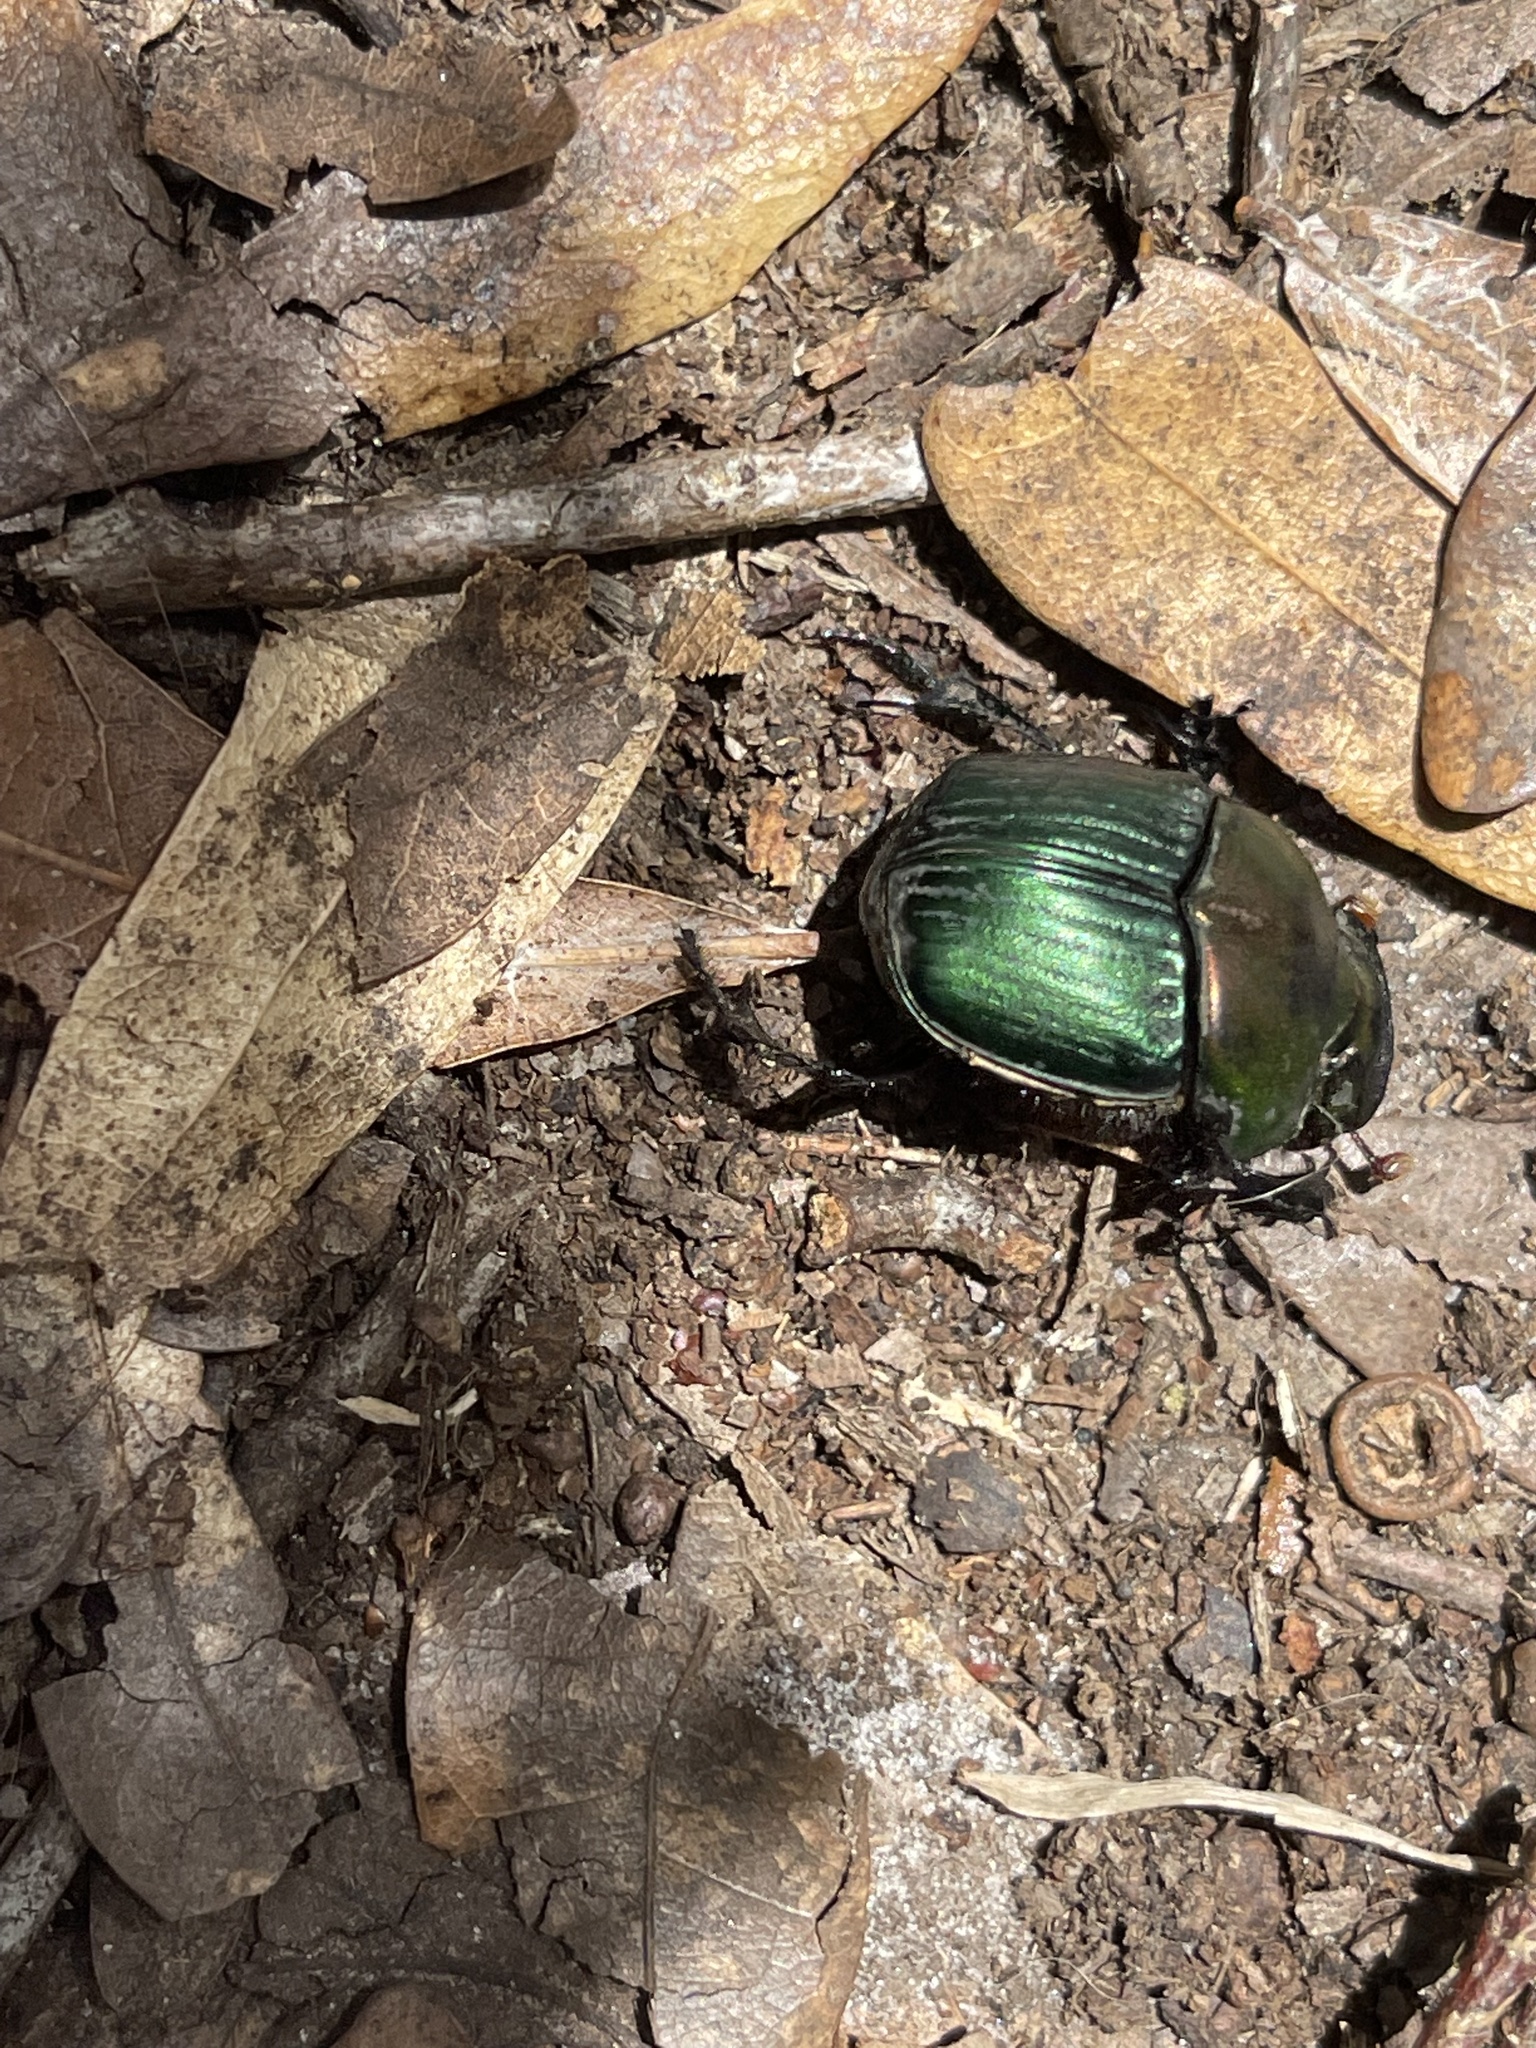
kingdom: Animalia
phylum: Arthropoda
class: Insecta
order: Coleoptera
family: Scarabaeidae
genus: Phanaeus
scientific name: Phanaeus igneus
